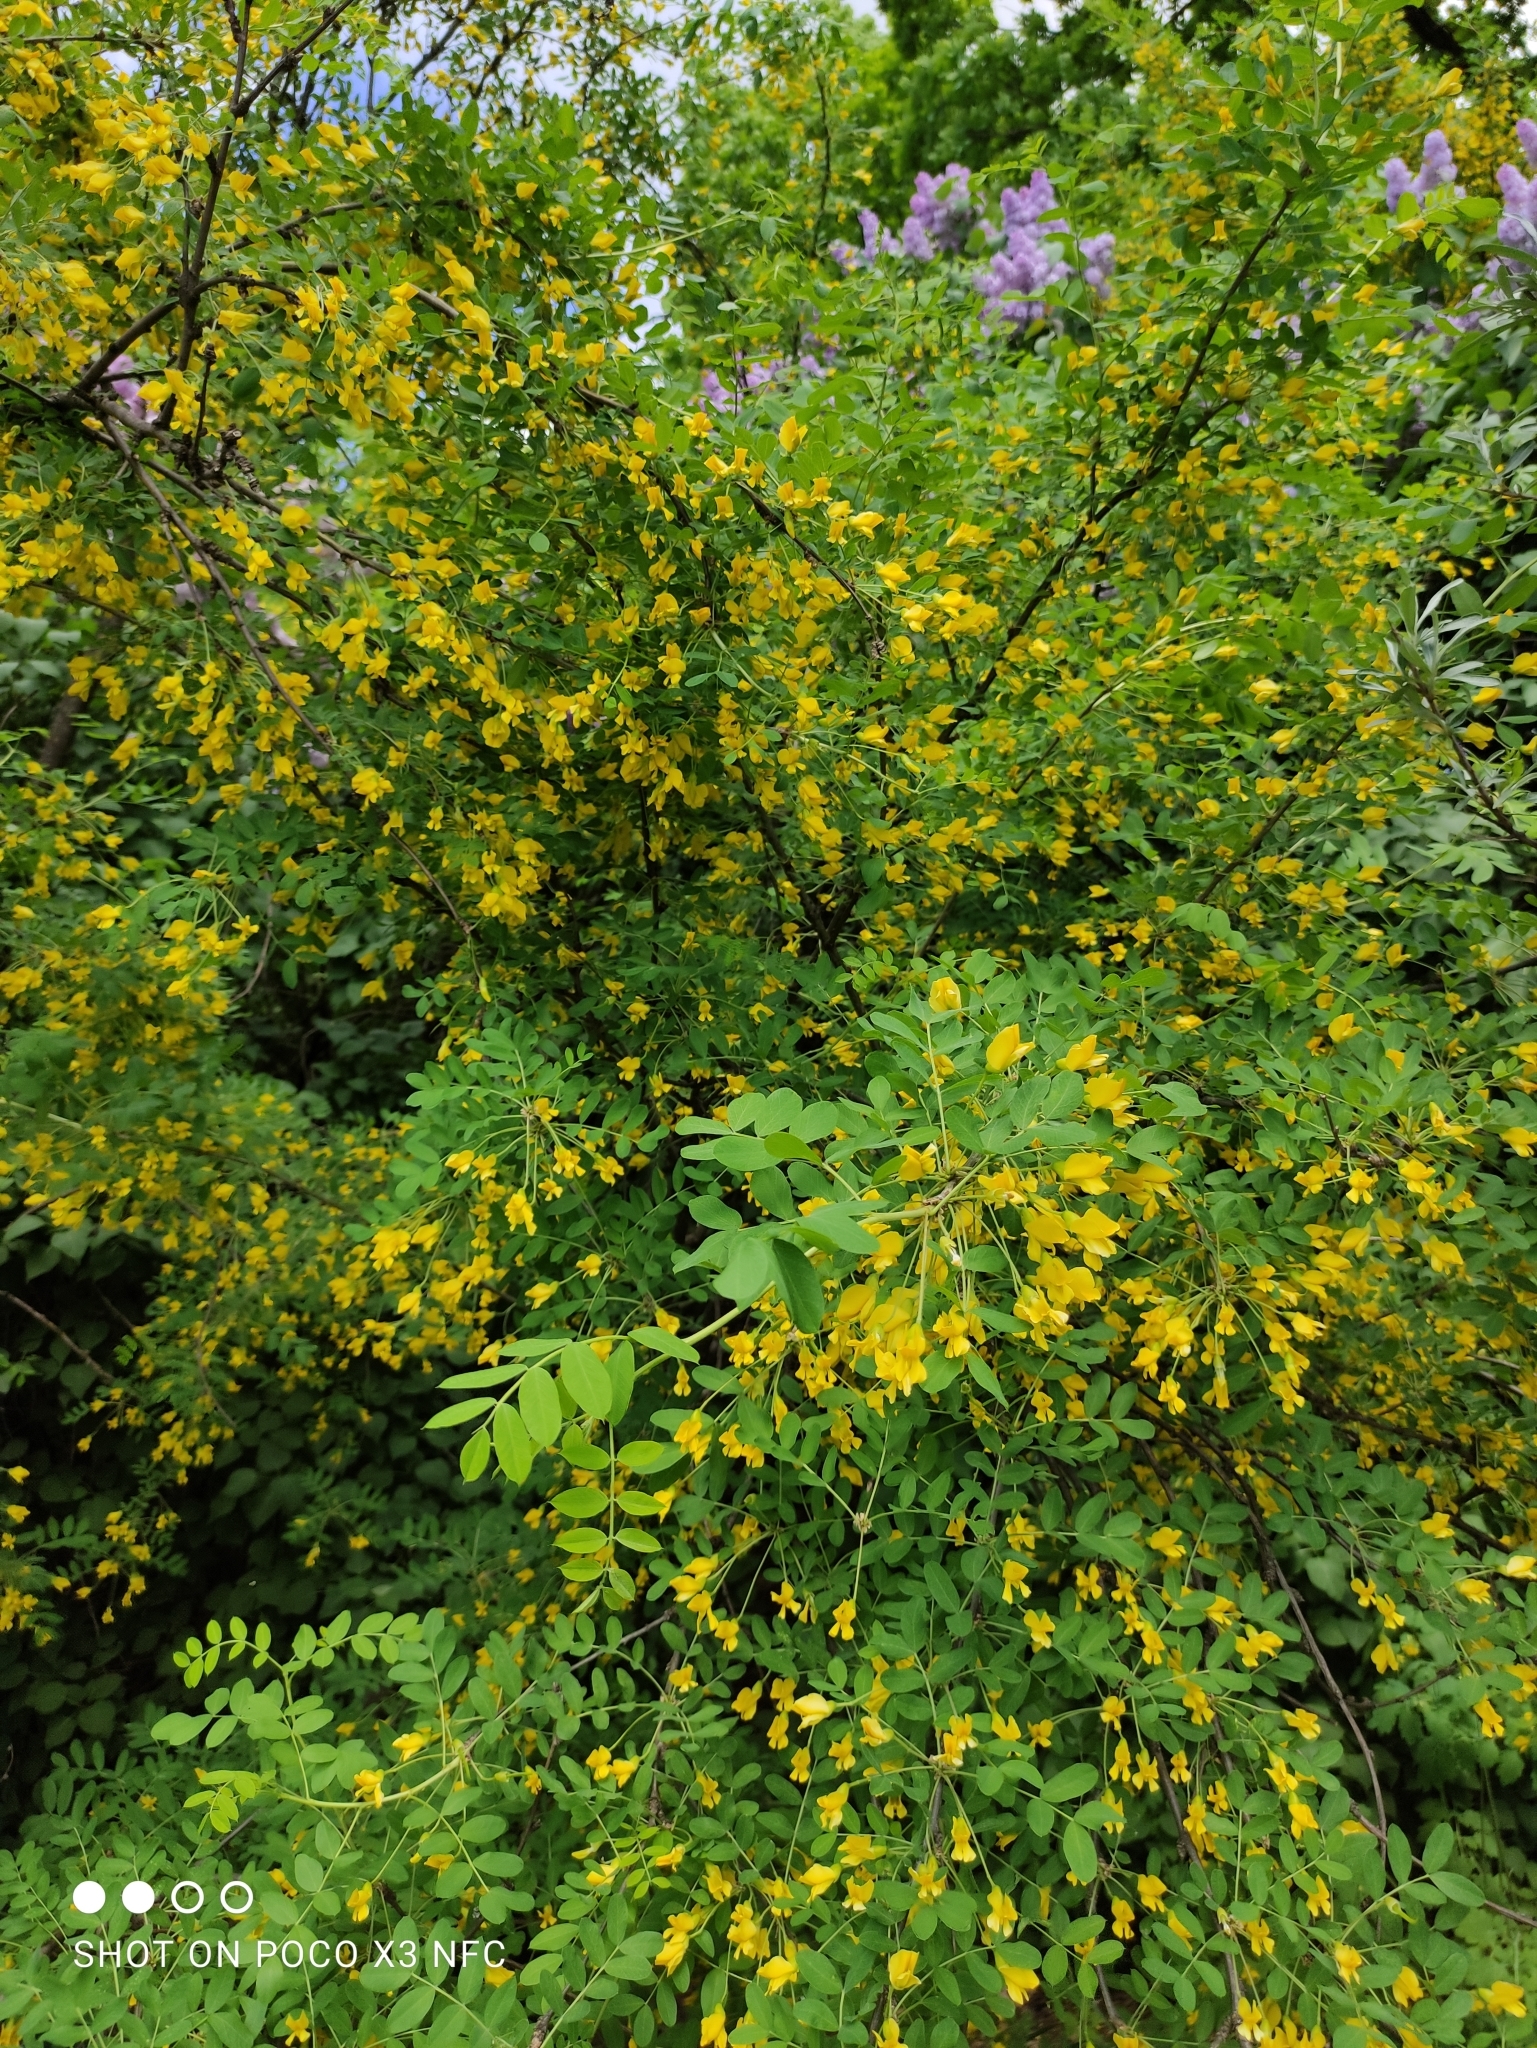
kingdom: Plantae
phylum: Tracheophyta
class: Magnoliopsida
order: Fabales
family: Fabaceae
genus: Caragana
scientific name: Caragana arborescens
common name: Siberian peashrub
